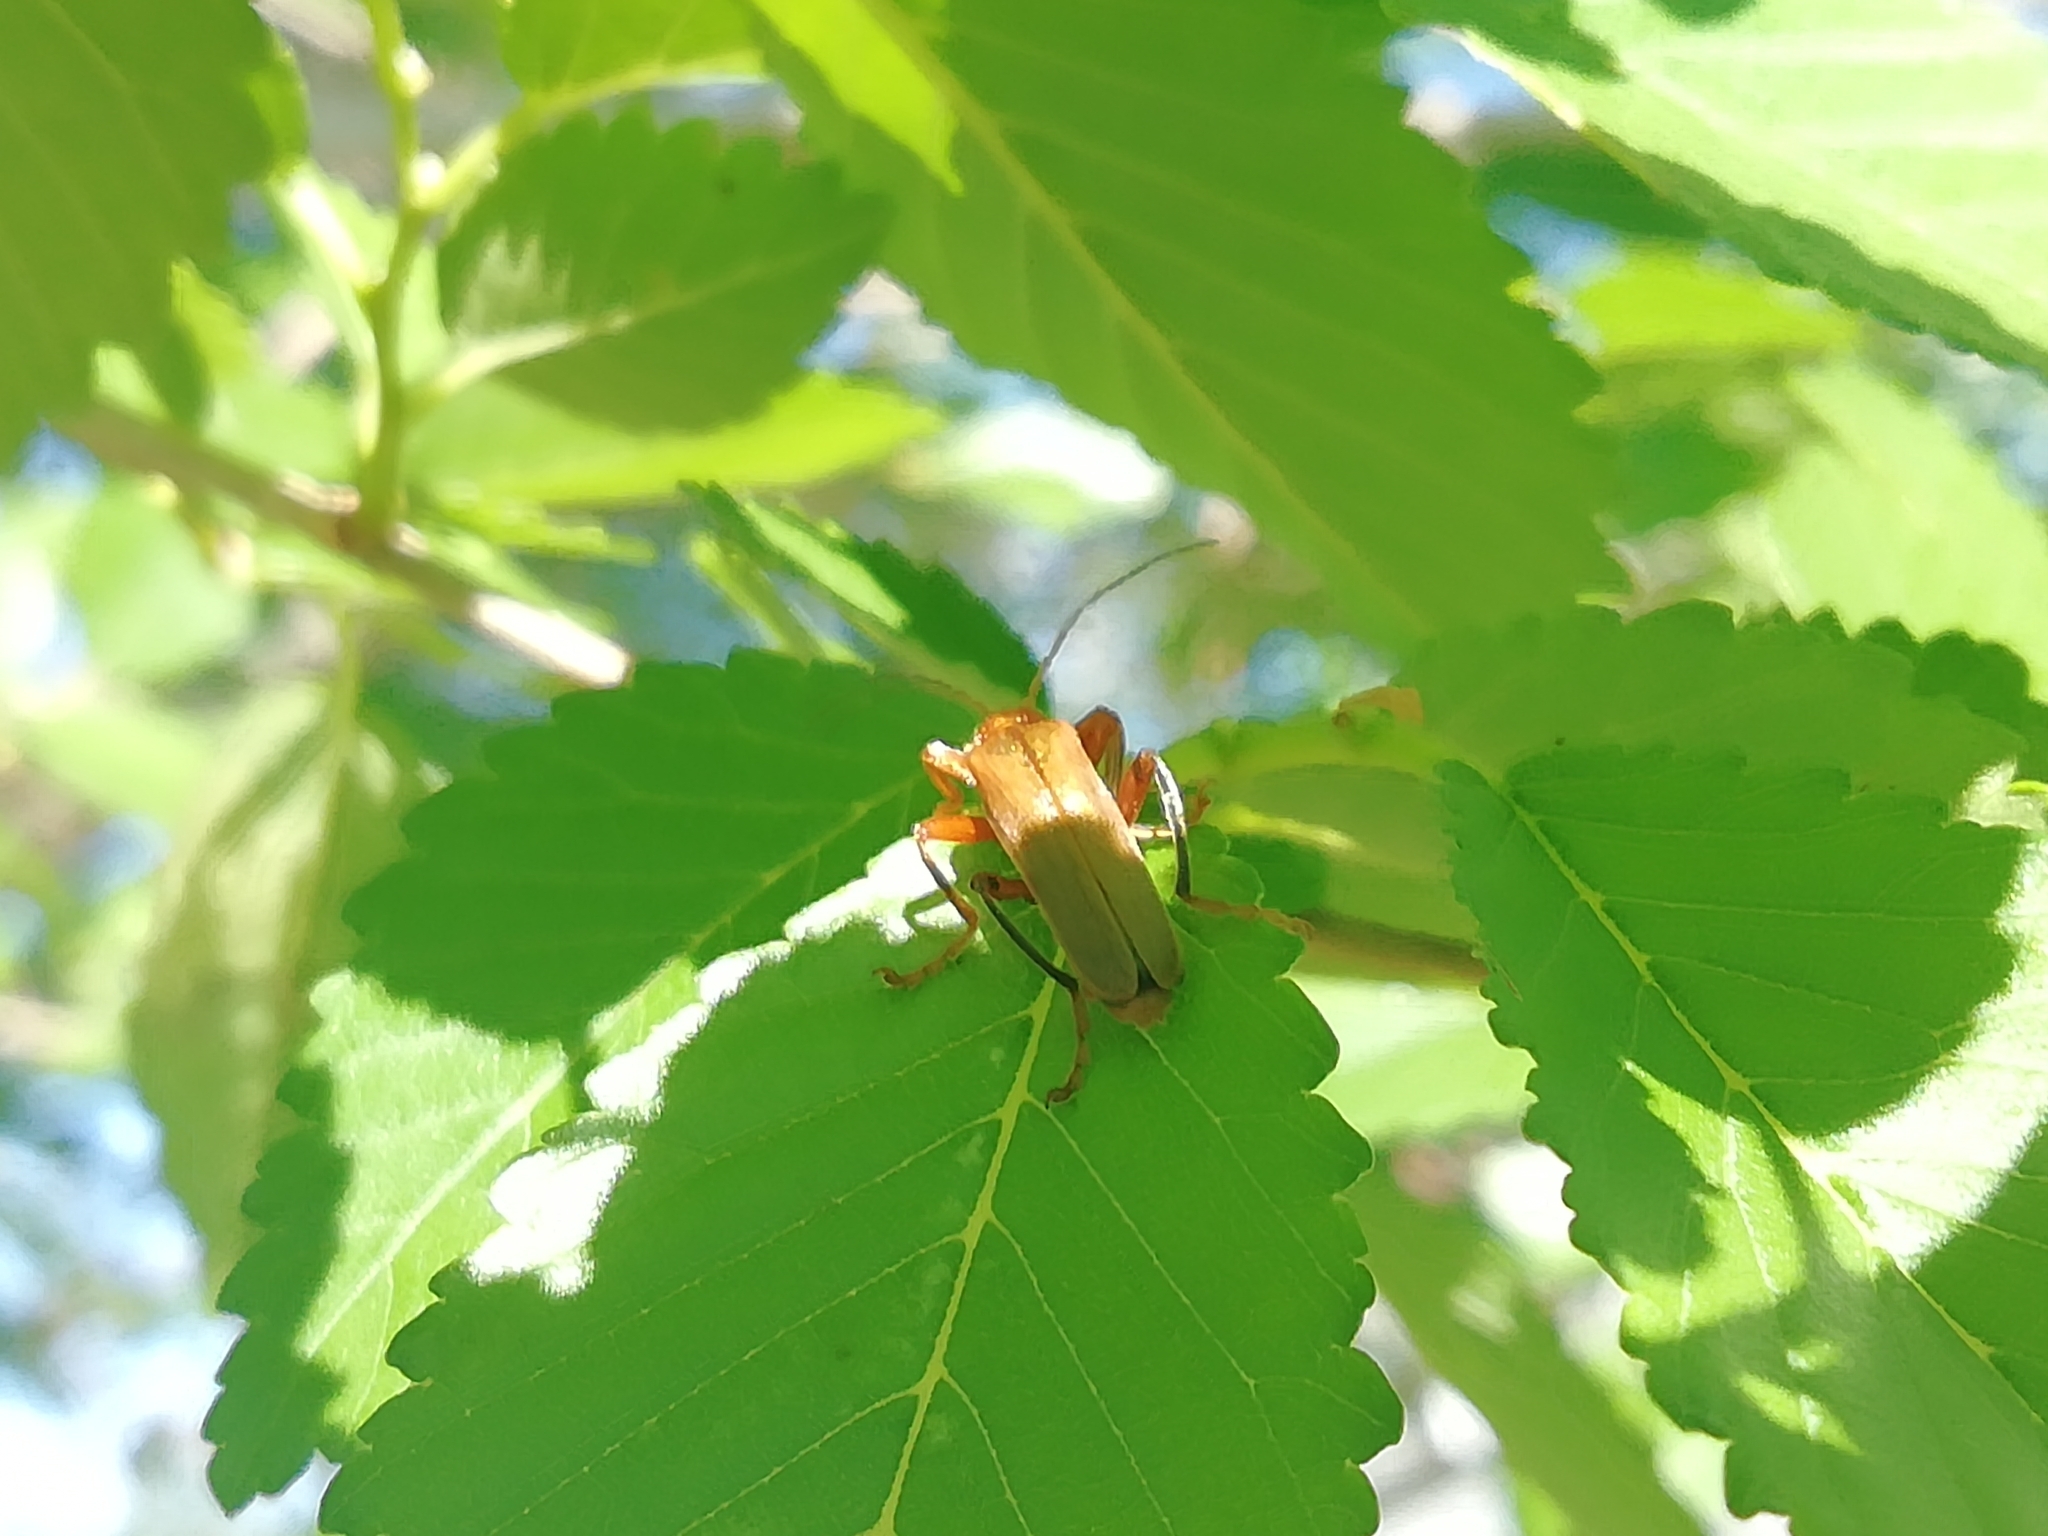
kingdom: Animalia
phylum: Arthropoda
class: Insecta
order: Coleoptera
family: Cantharidae
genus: Cantharis
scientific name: Cantharis livida
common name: Livid soldier beetle
